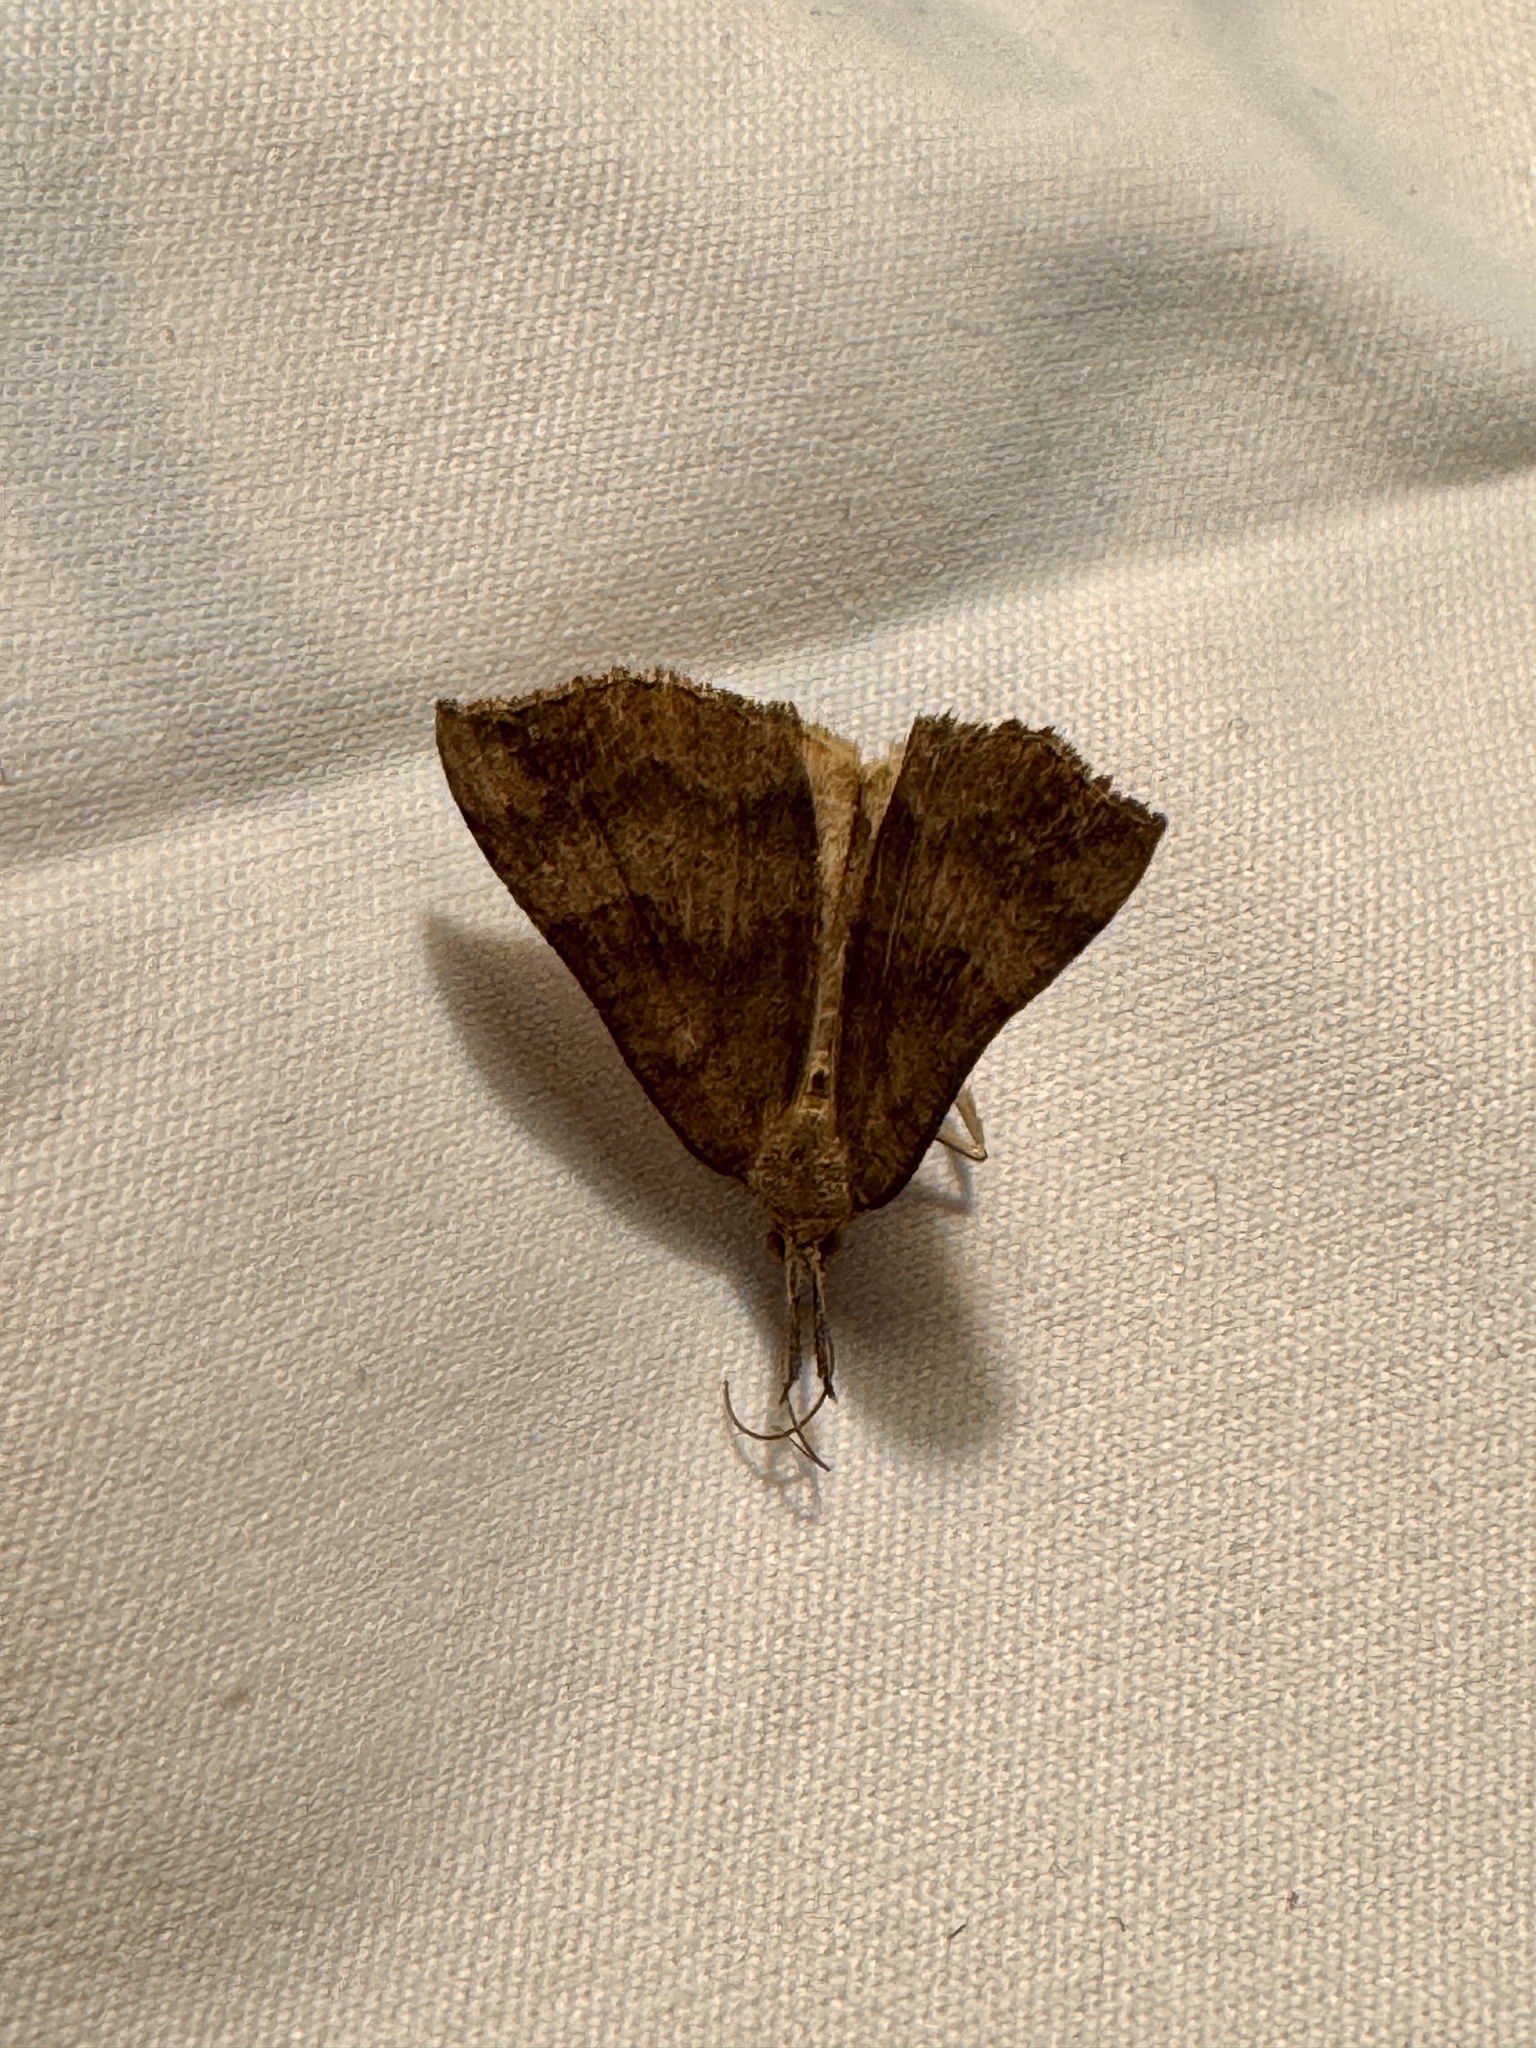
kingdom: Animalia
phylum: Arthropoda
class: Insecta
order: Lepidoptera
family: Erebidae
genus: Hypena
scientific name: Hypena proboscidalis
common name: Snout
